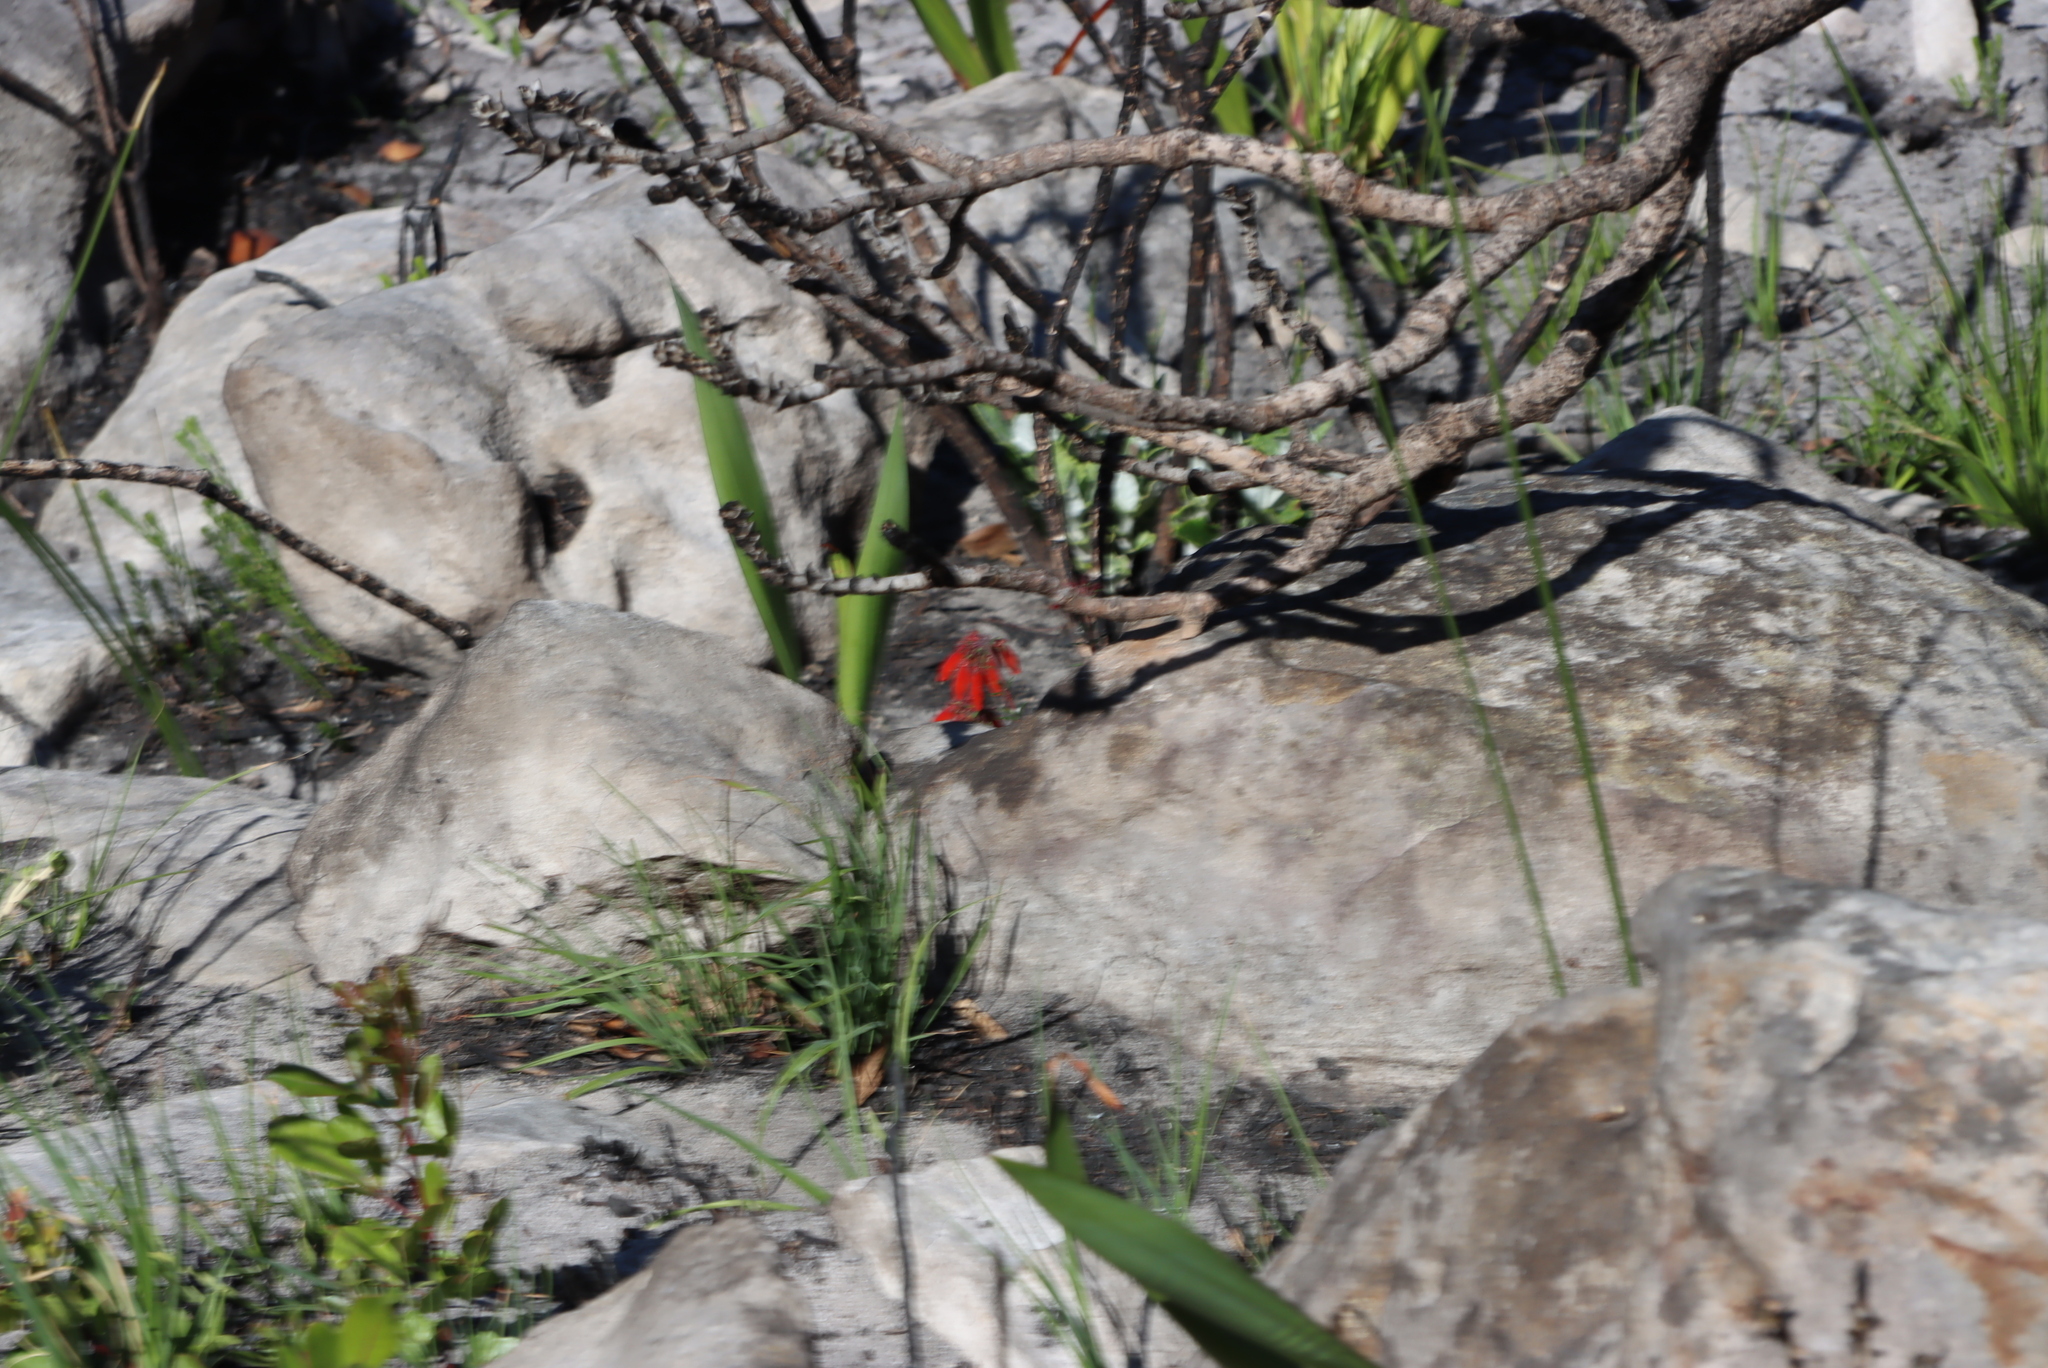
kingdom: Plantae
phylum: Tracheophyta
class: Magnoliopsida
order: Ericales
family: Ericaceae
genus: Erica
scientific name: Erica cerinthoides
